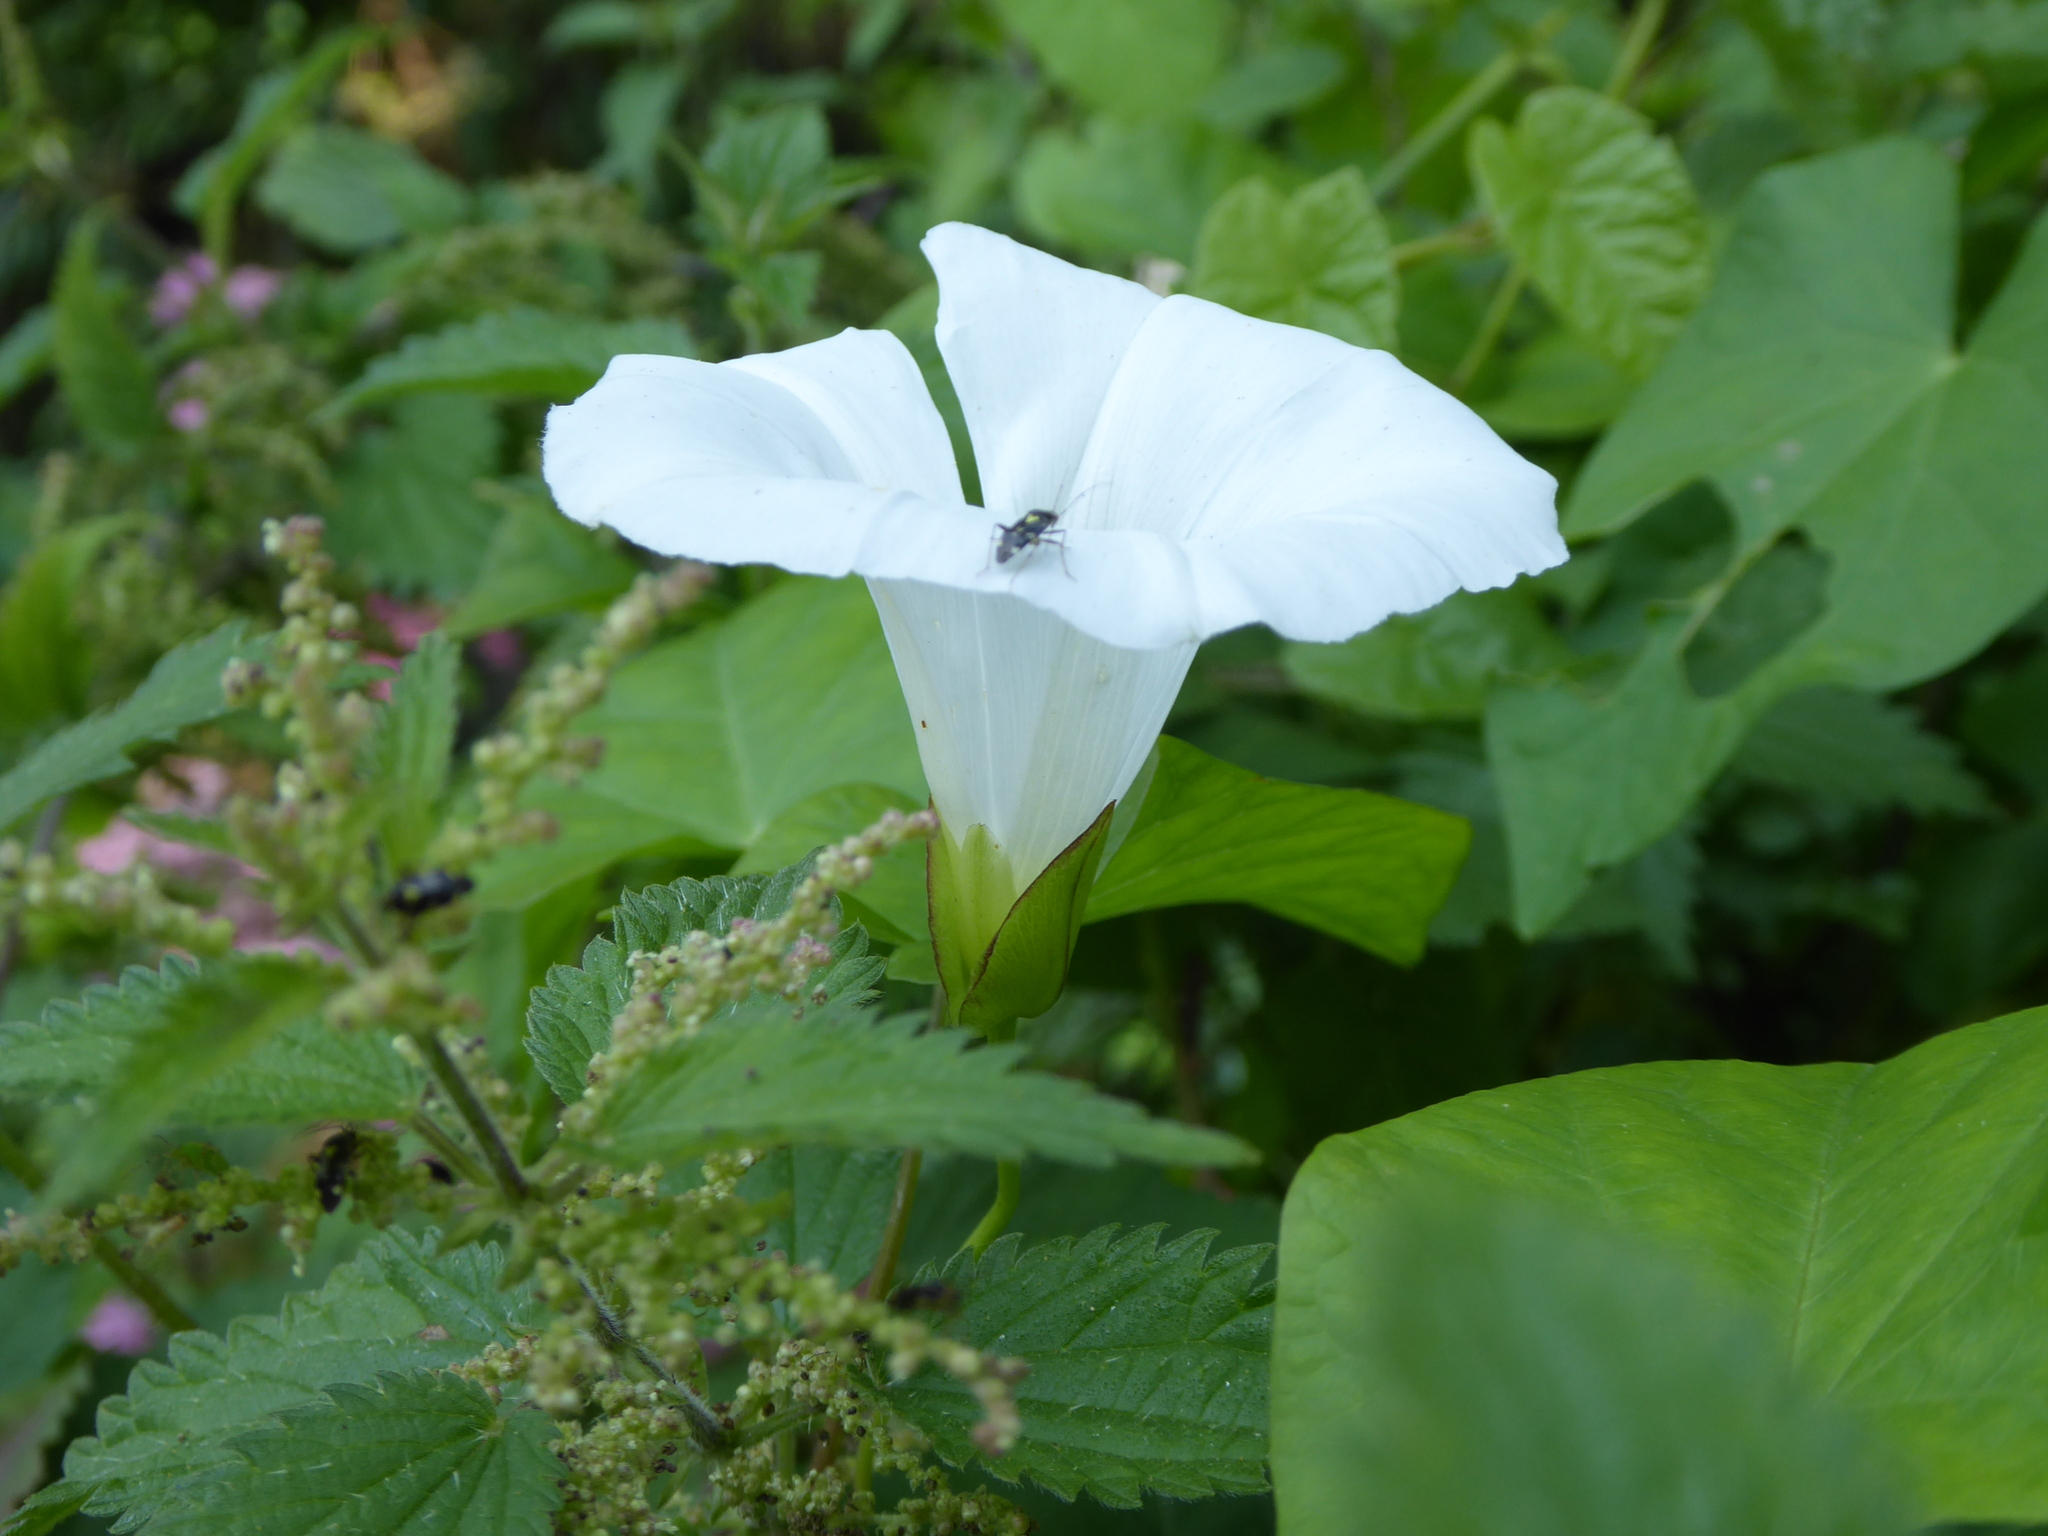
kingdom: Plantae
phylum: Tracheophyta
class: Magnoliopsida
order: Solanales
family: Convolvulaceae
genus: Calystegia
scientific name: Calystegia sepium
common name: Hedge bindweed
